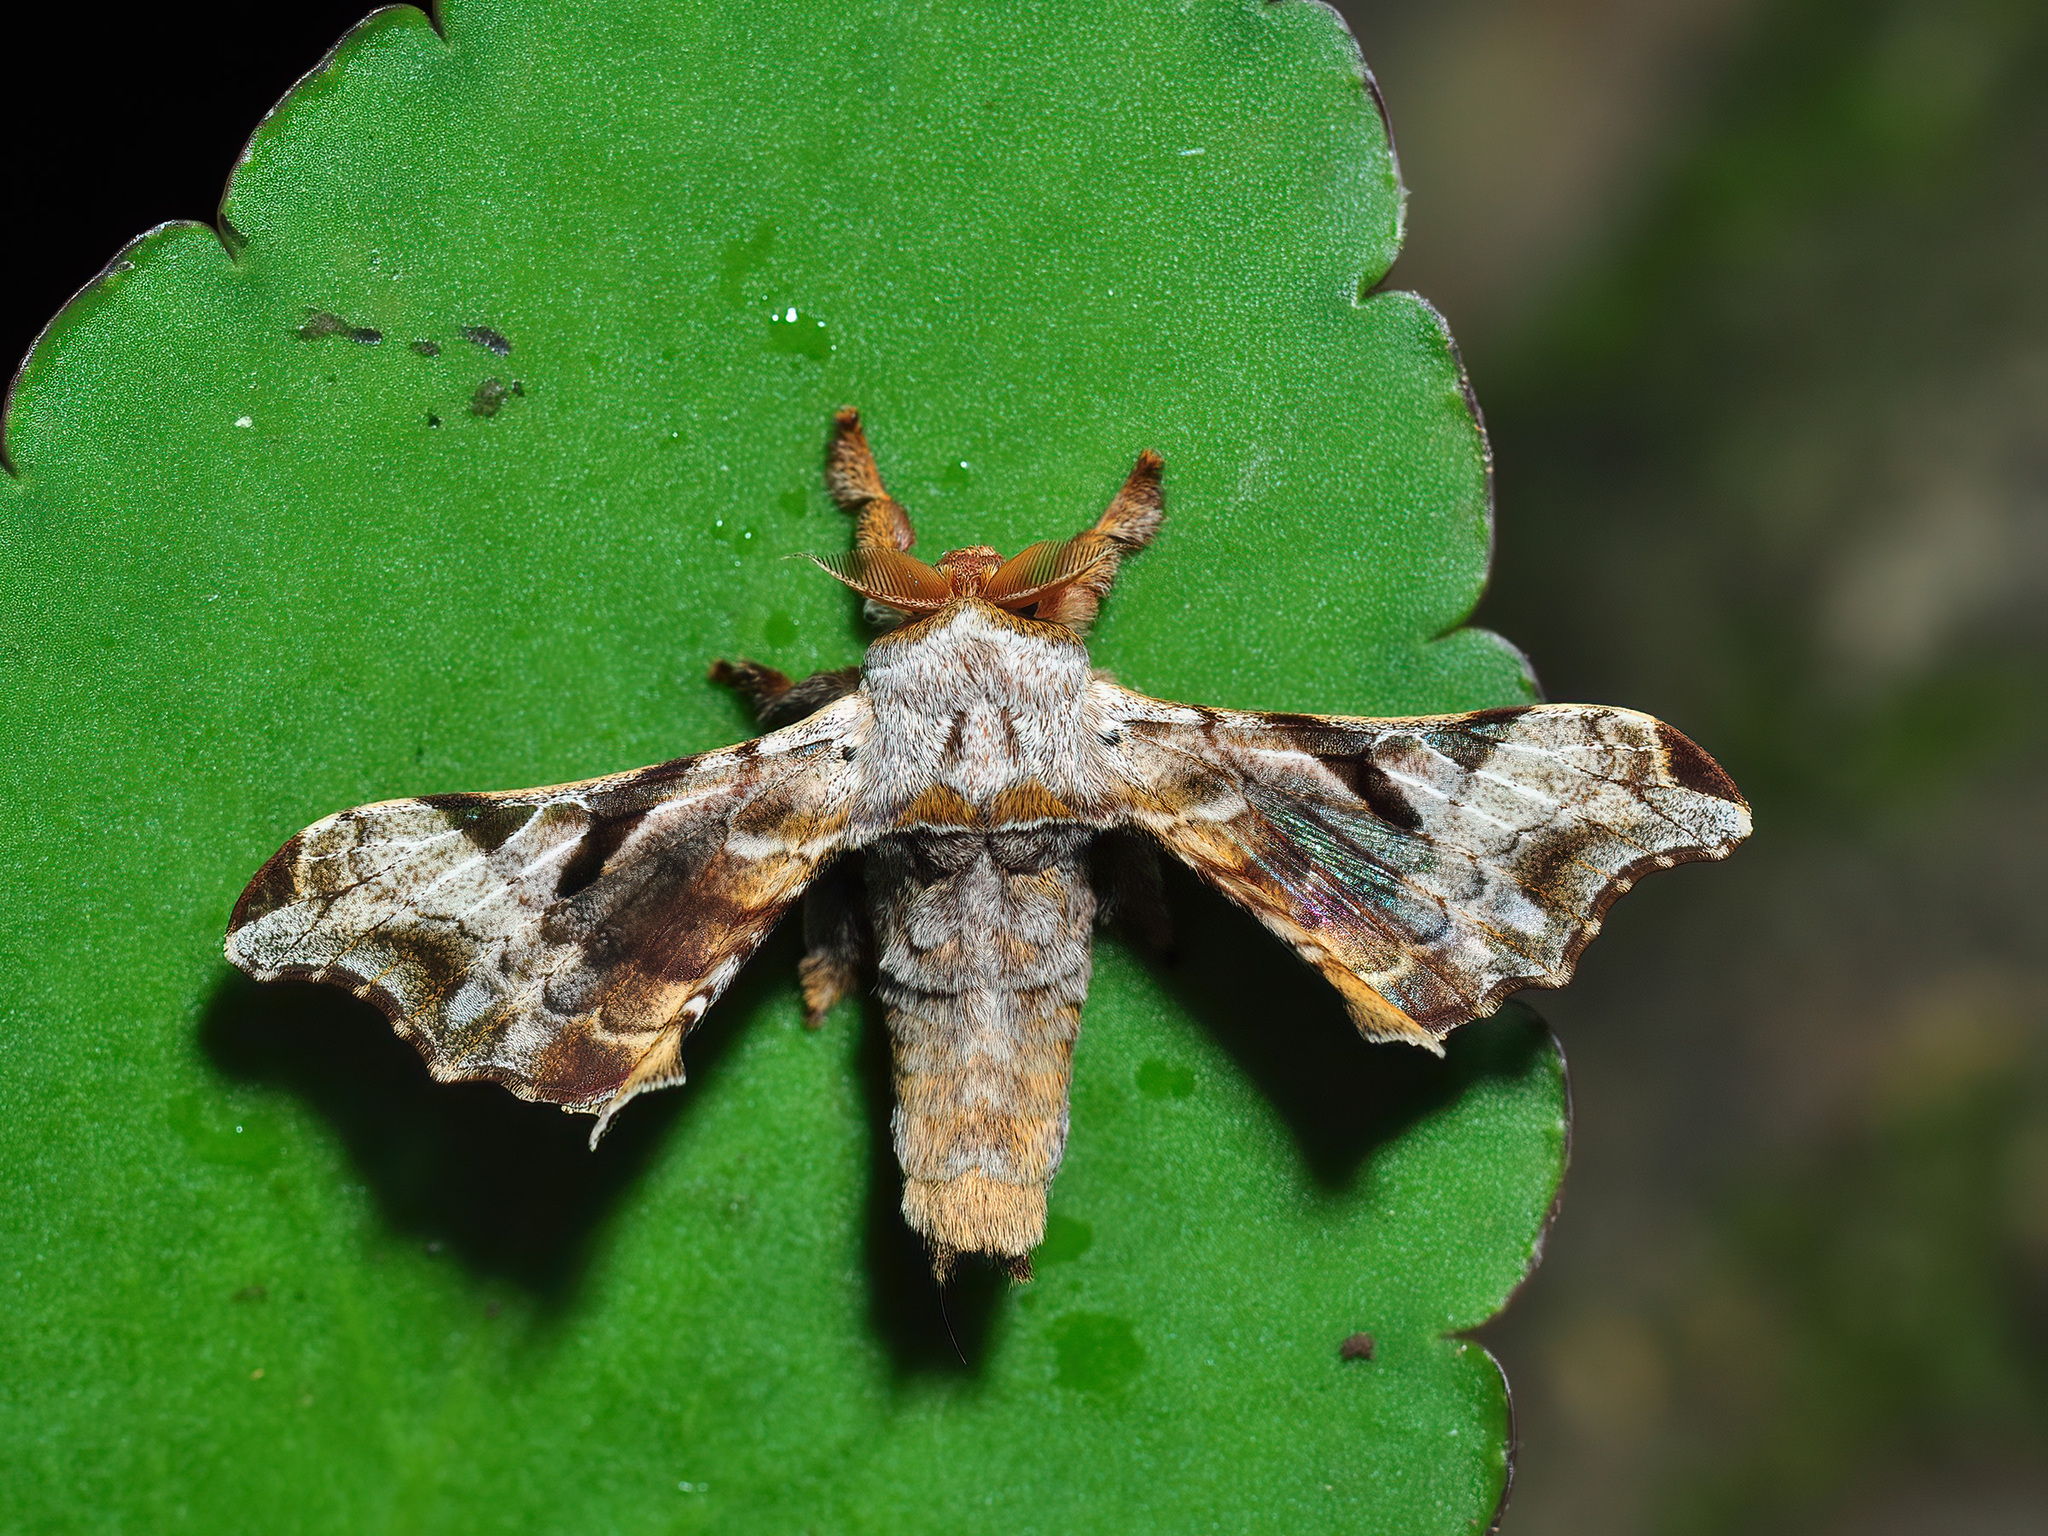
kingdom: Animalia
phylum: Arthropoda
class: Insecta
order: Lepidoptera
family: Bombycidae
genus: Gunda
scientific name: Gunda ochracea
